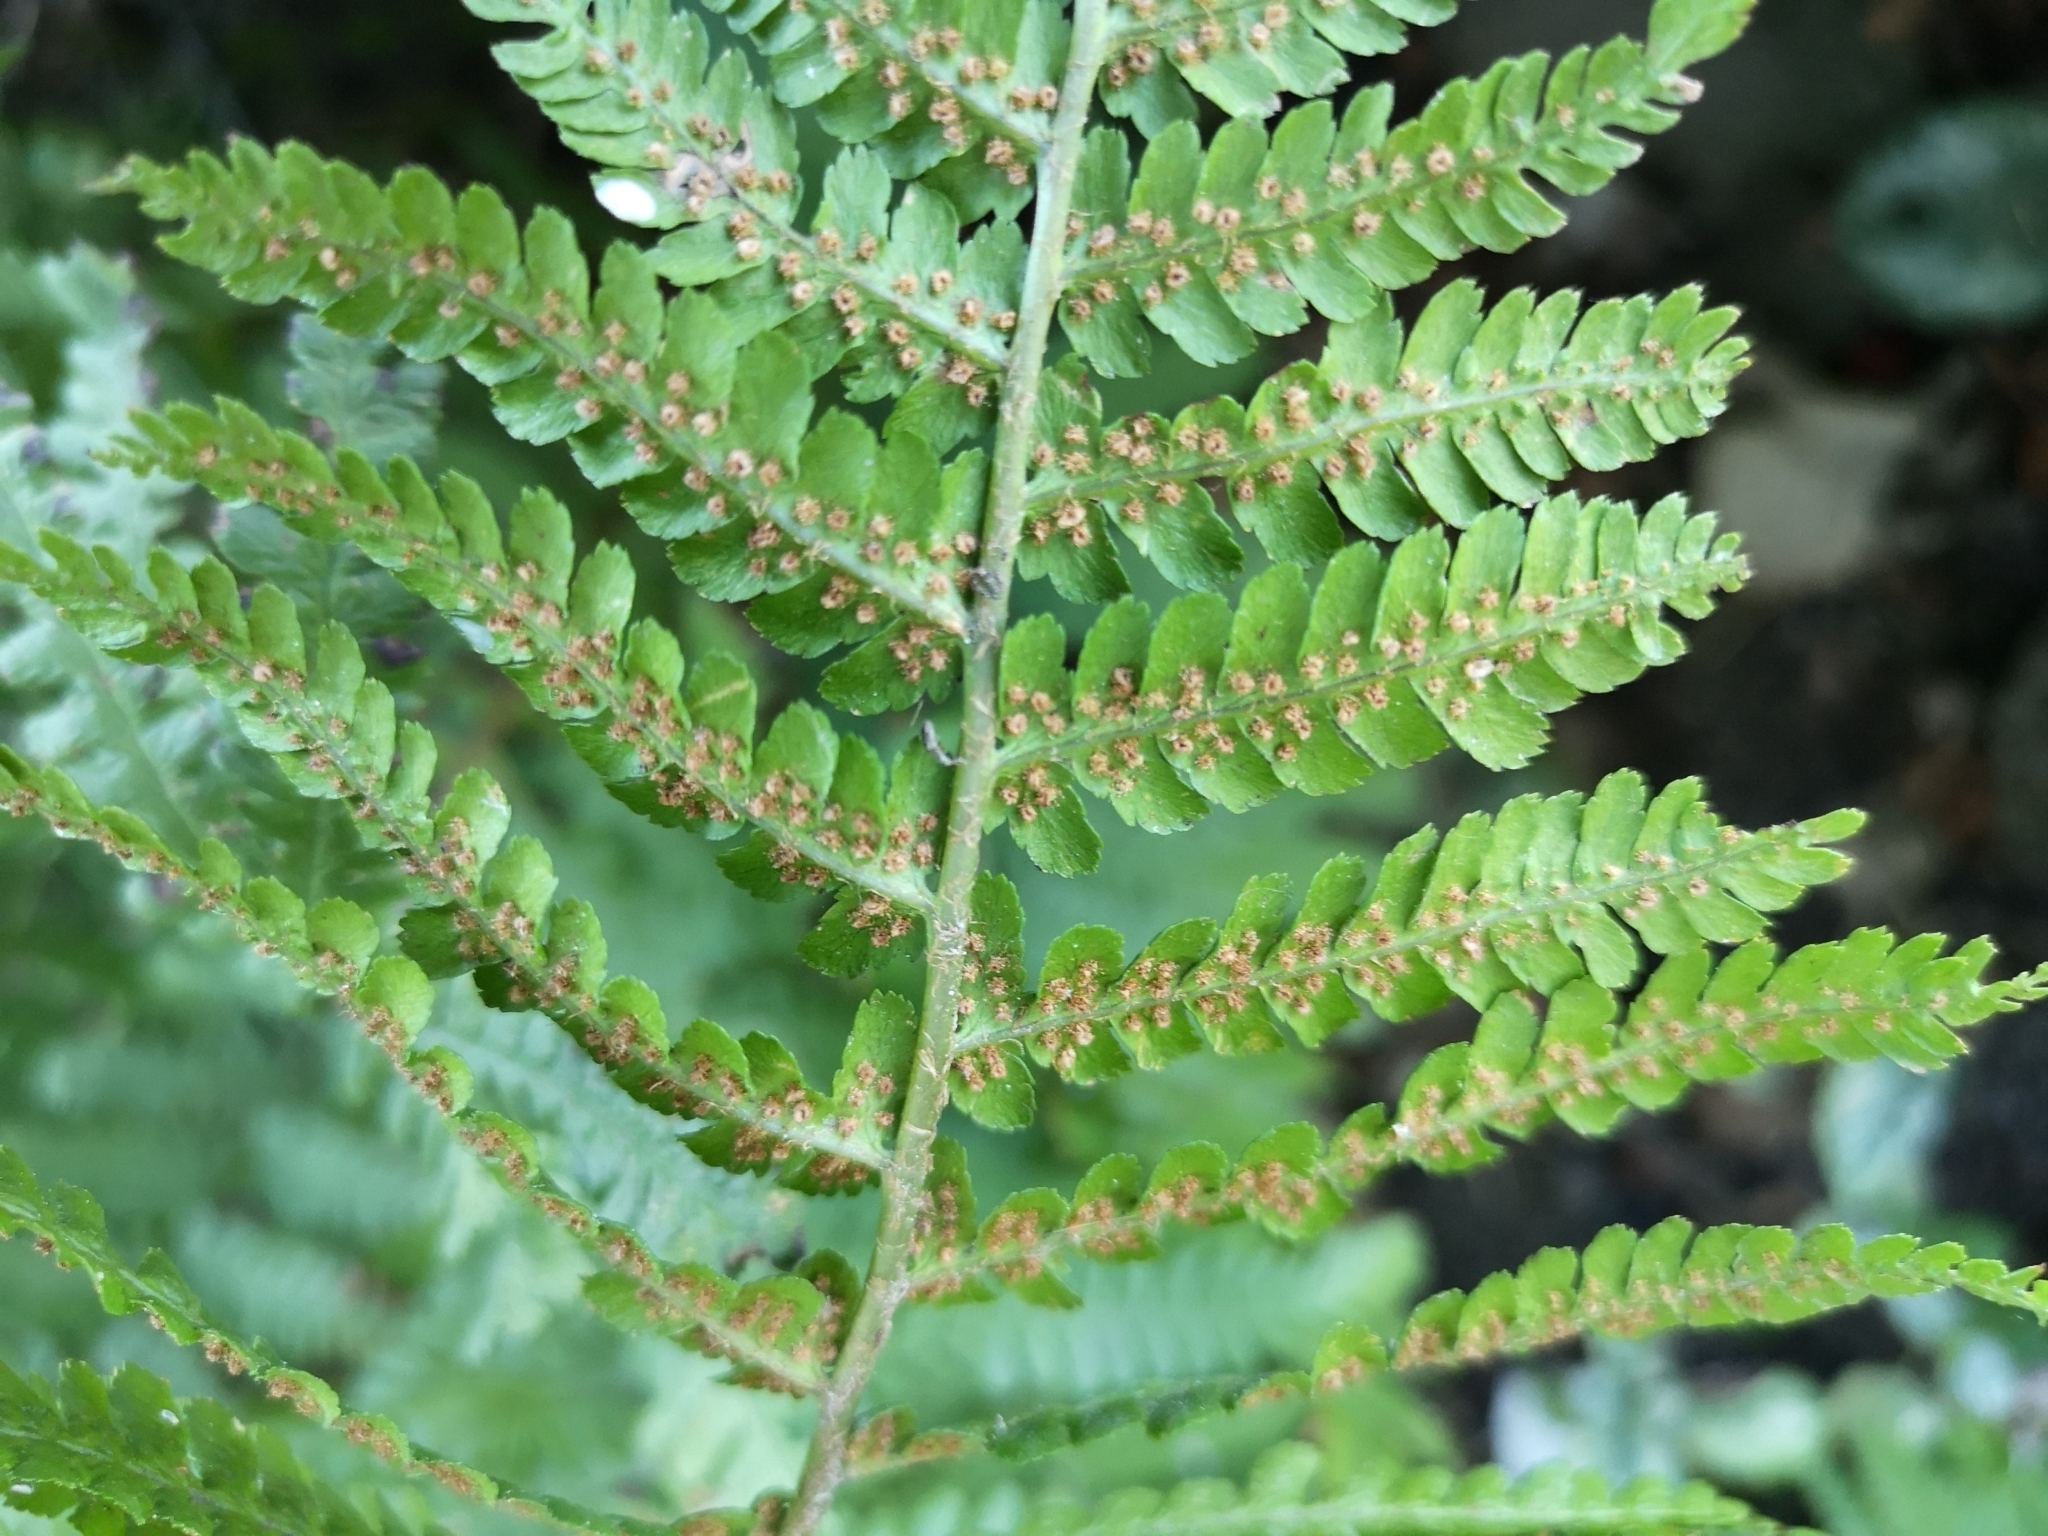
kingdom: Plantae
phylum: Tracheophyta
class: Polypodiopsida
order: Polypodiales
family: Dryopteridaceae
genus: Dryopteris
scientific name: Dryopteris filix-mas
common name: Male fern
